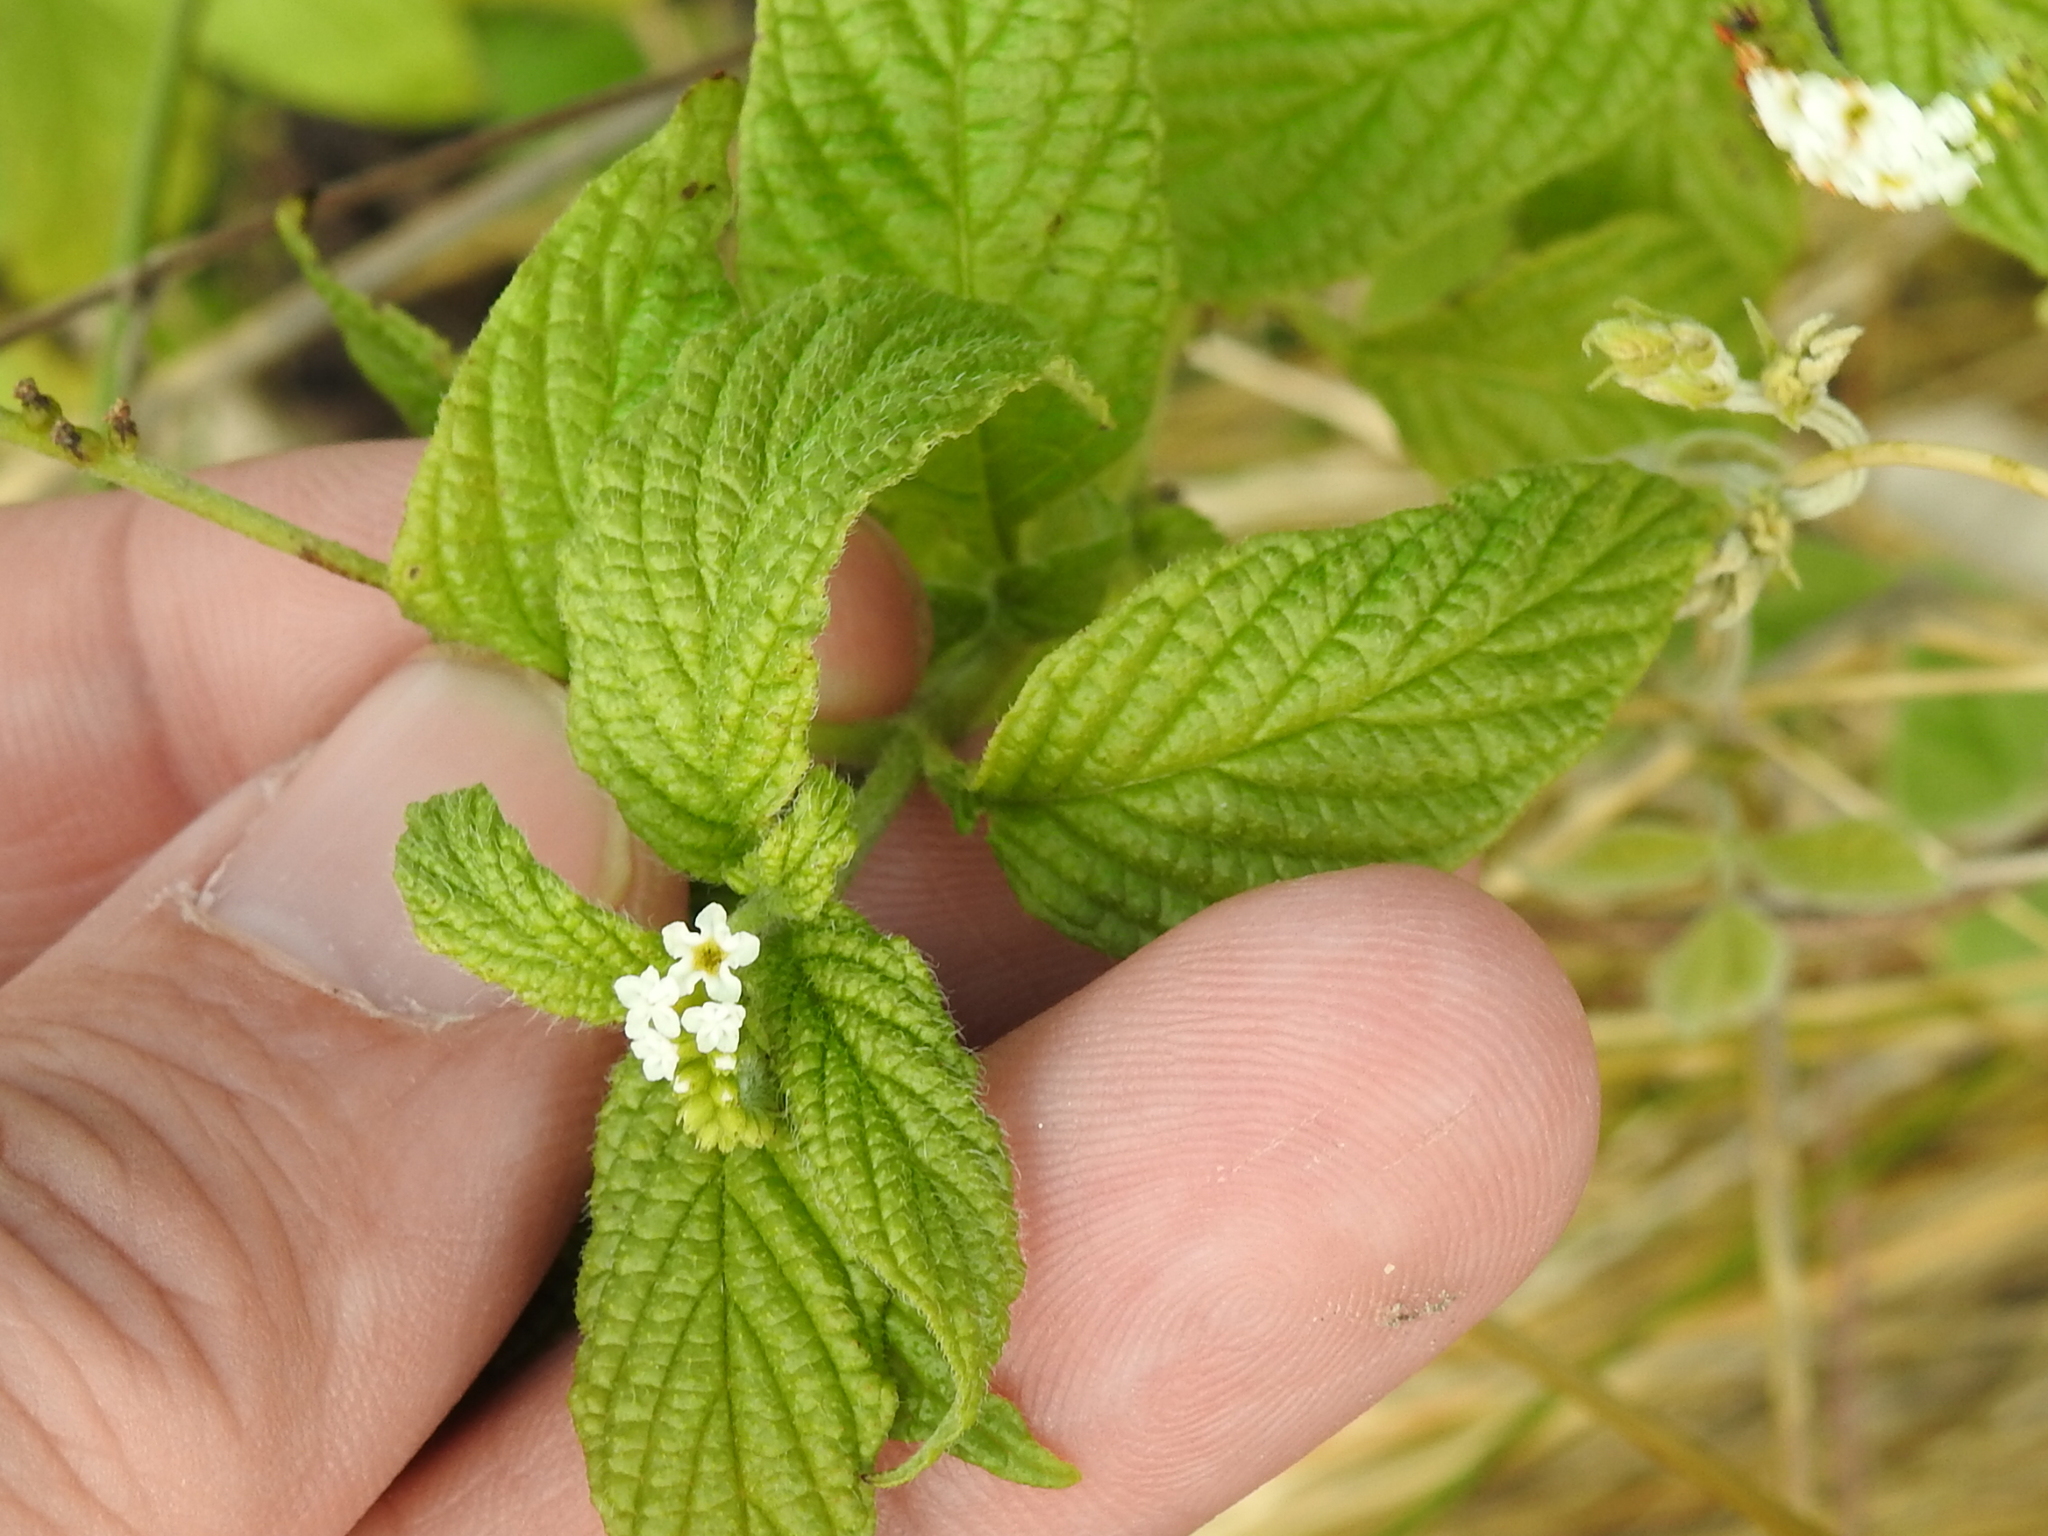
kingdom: Plantae
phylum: Tracheophyta
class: Magnoliopsida
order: Boraginales
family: Heliotropiaceae
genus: Heliotropium
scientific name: Heliotropium angiospermum
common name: Eye bright
